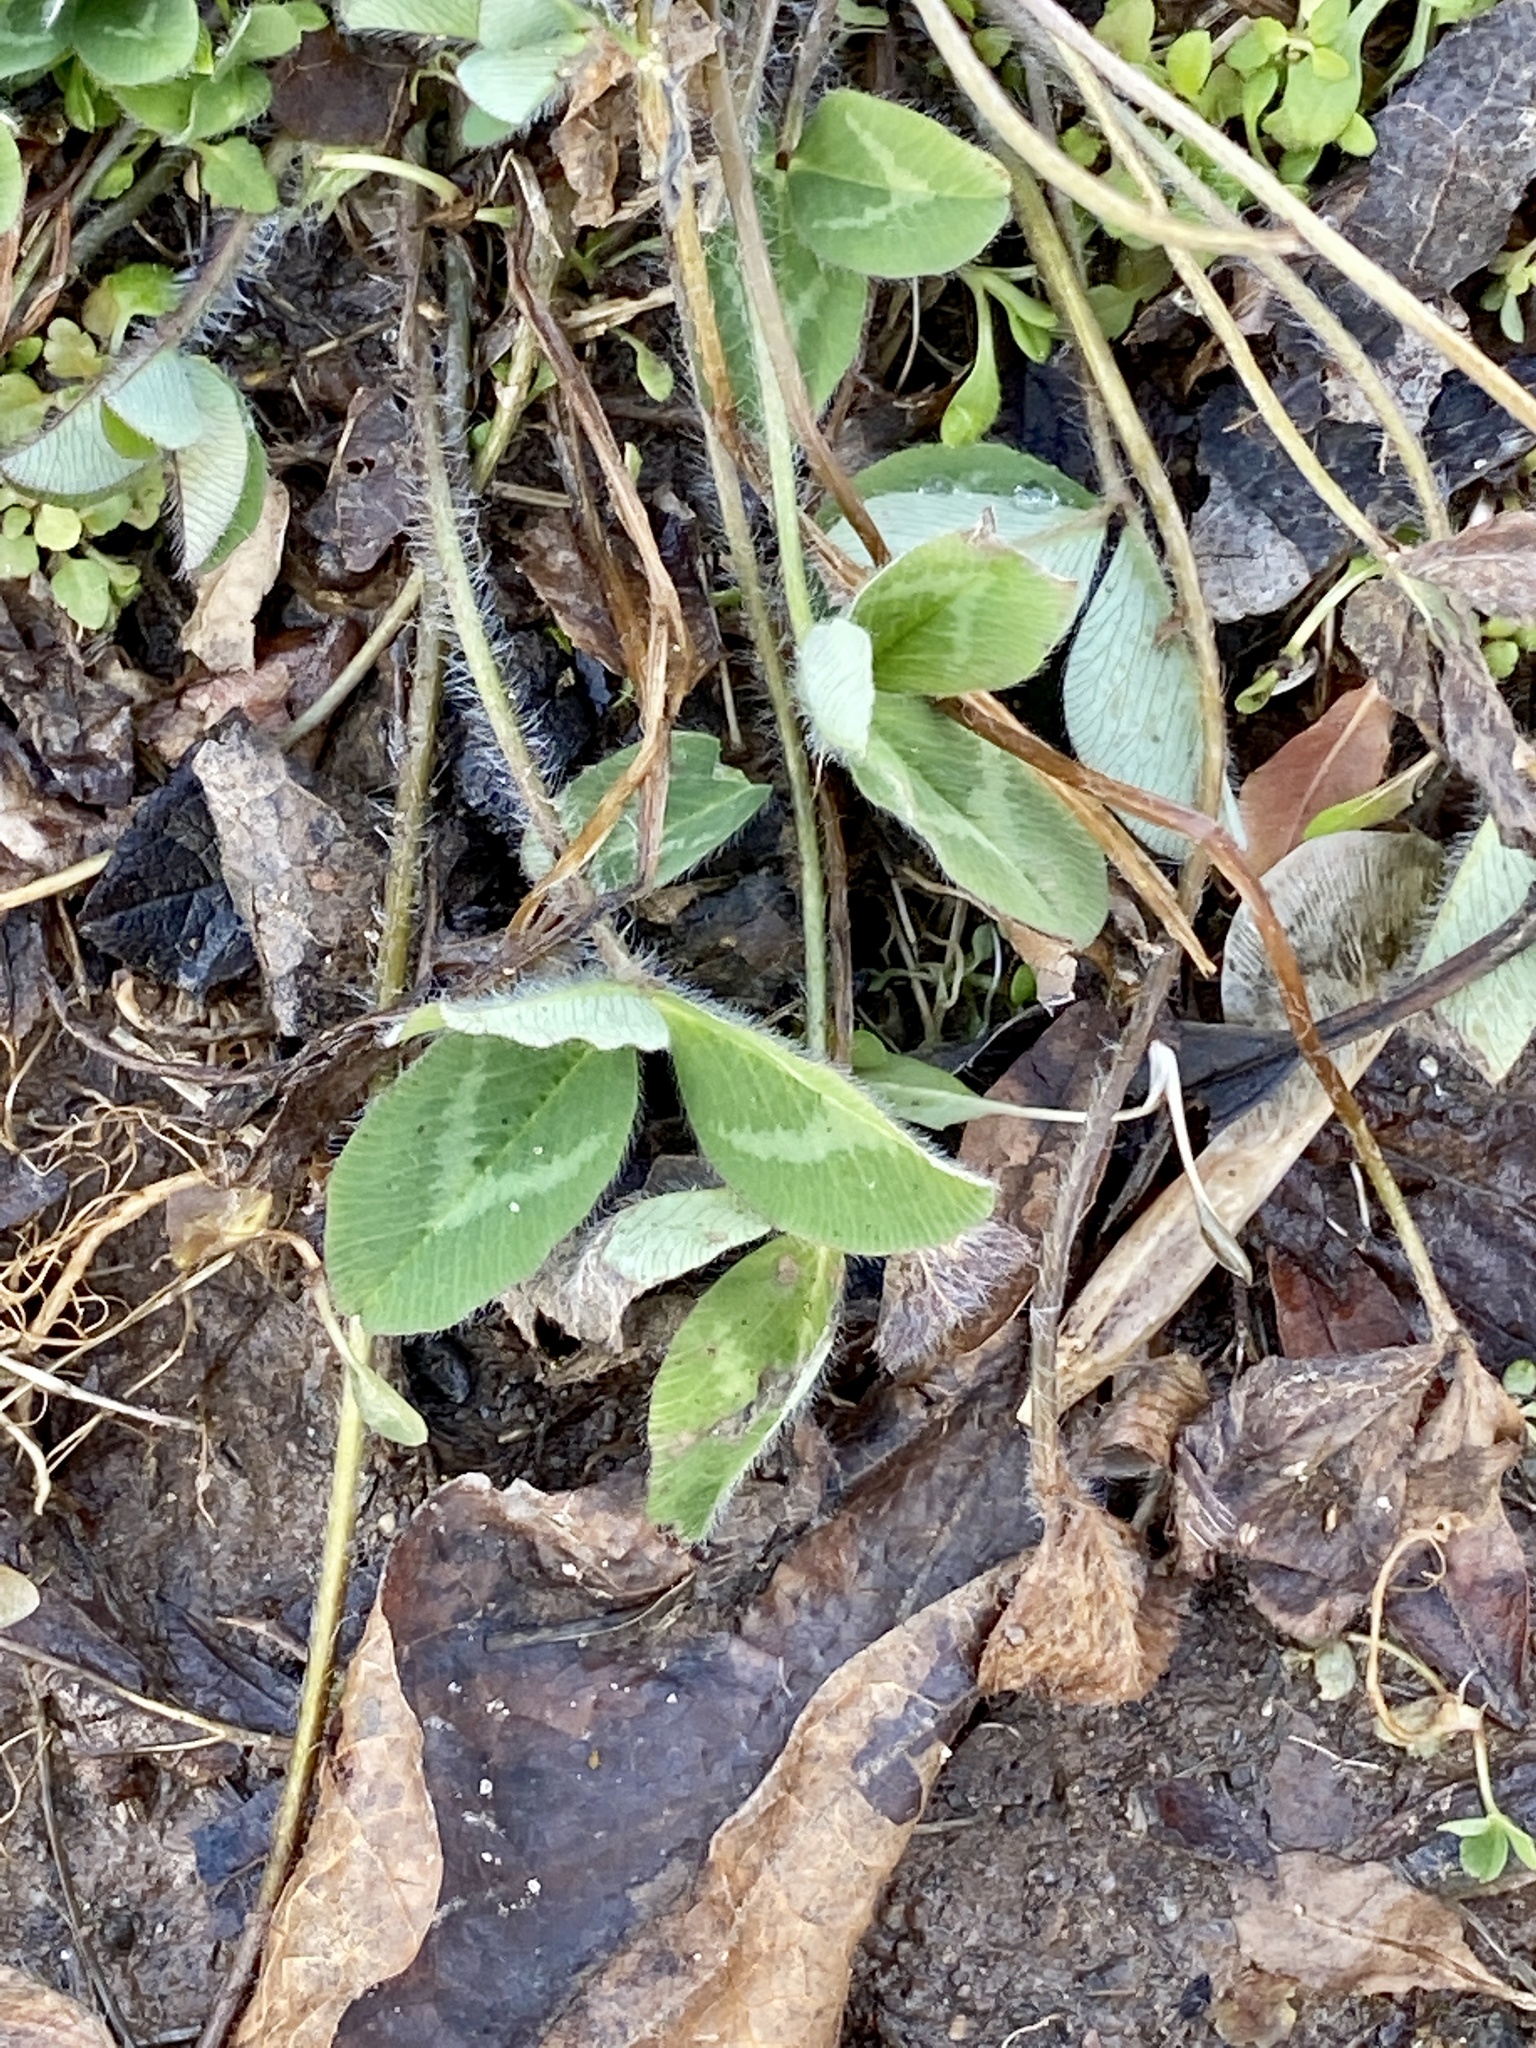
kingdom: Plantae
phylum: Tracheophyta
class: Magnoliopsida
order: Fabales
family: Fabaceae
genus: Trifolium
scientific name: Trifolium pratense
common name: Red clover
